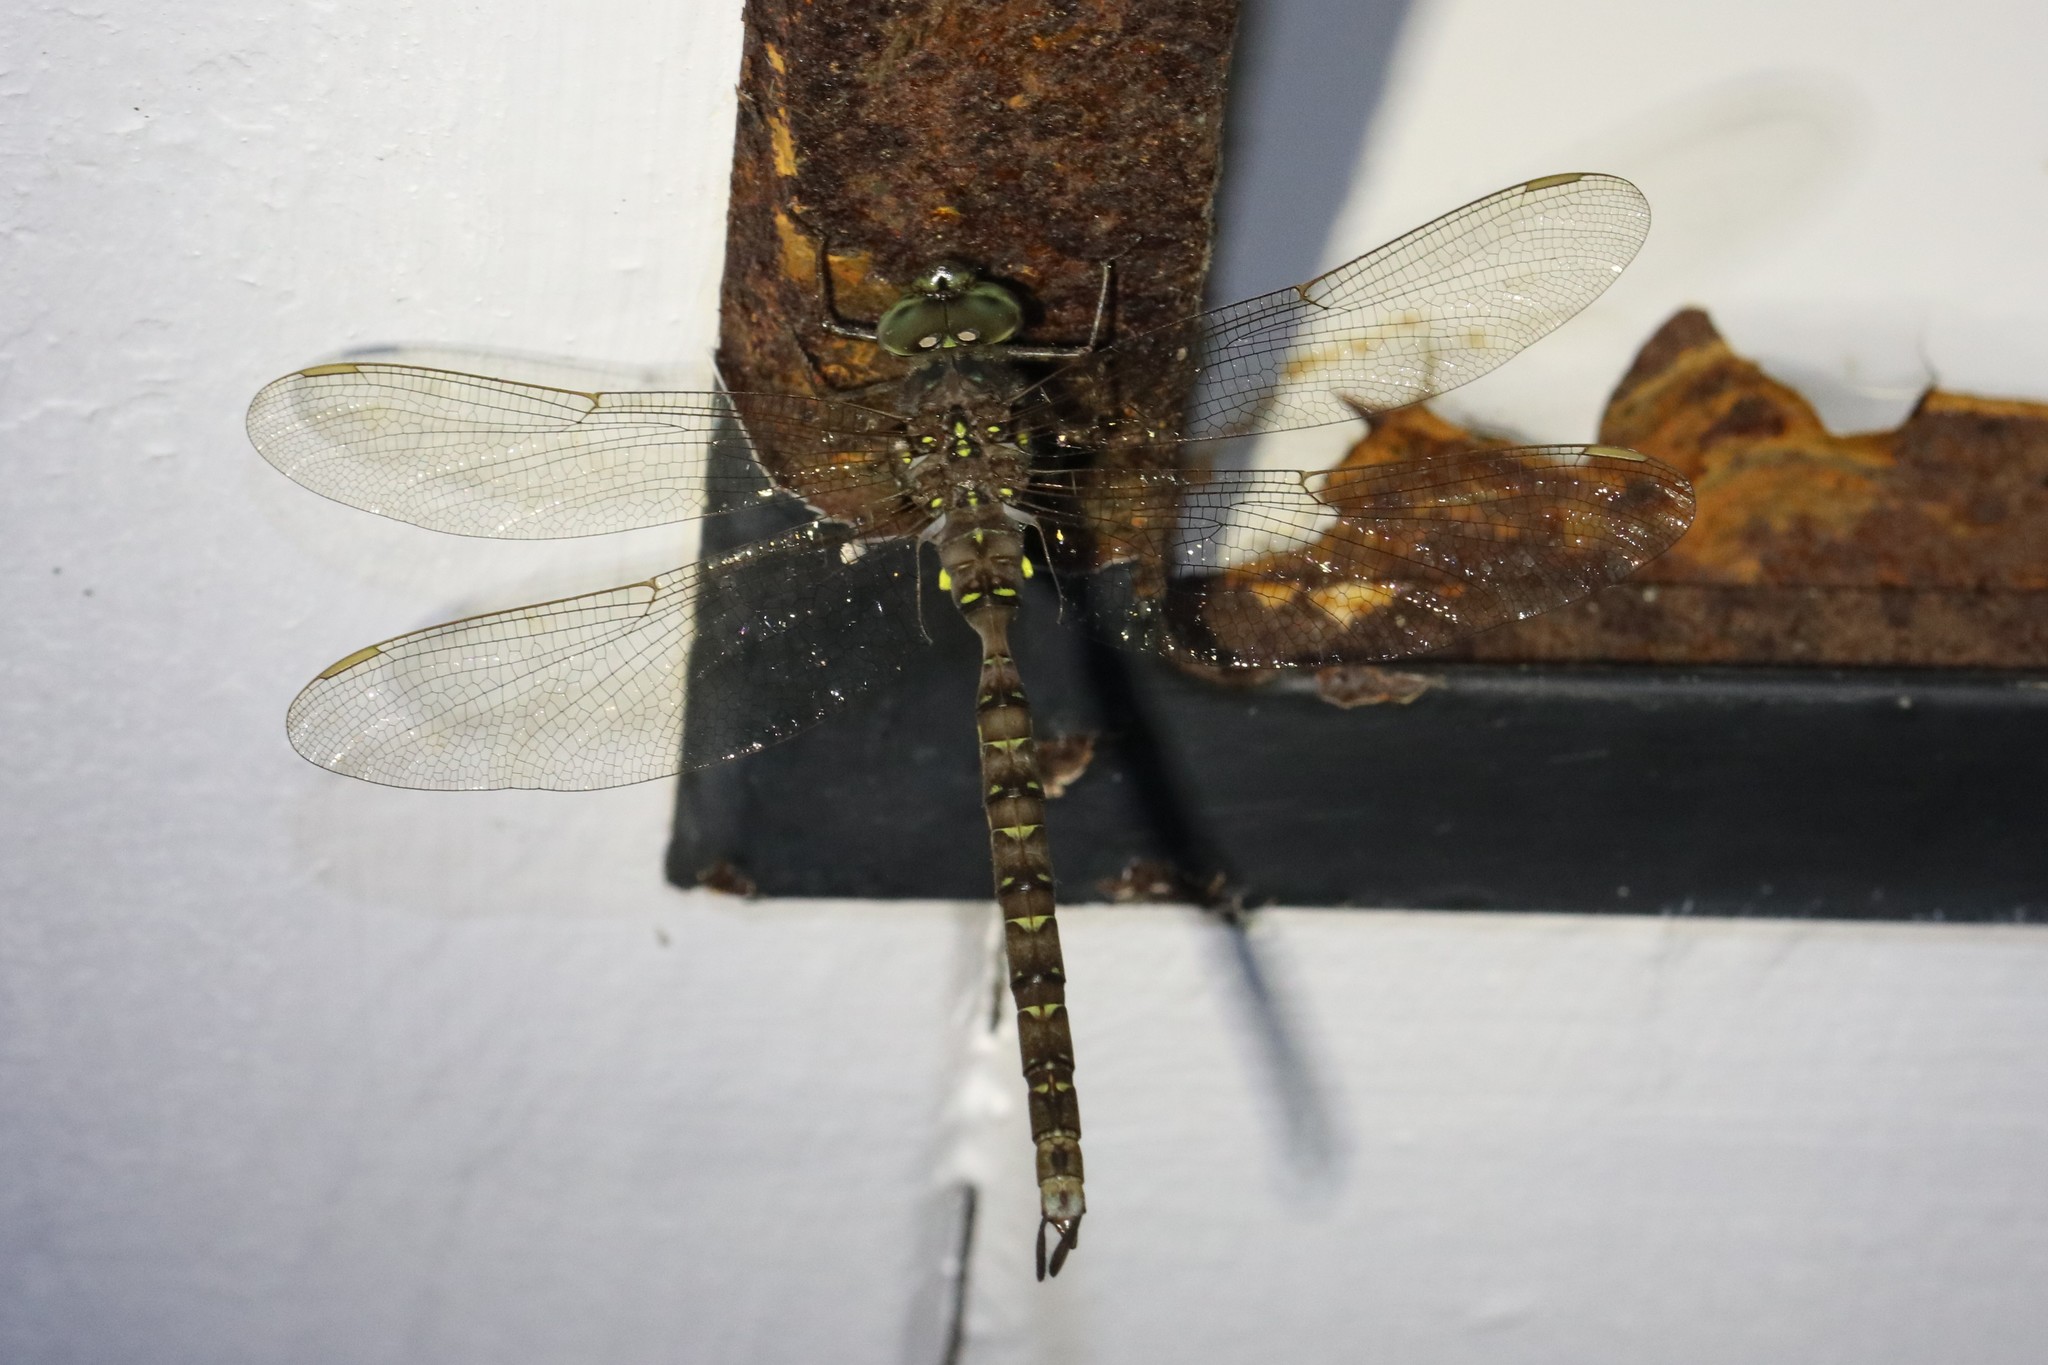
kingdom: Animalia
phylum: Arthropoda
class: Insecta
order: Odonata
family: Aeshnidae
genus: Boyeria
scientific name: Boyeria grafiana
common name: Ocellated darner
